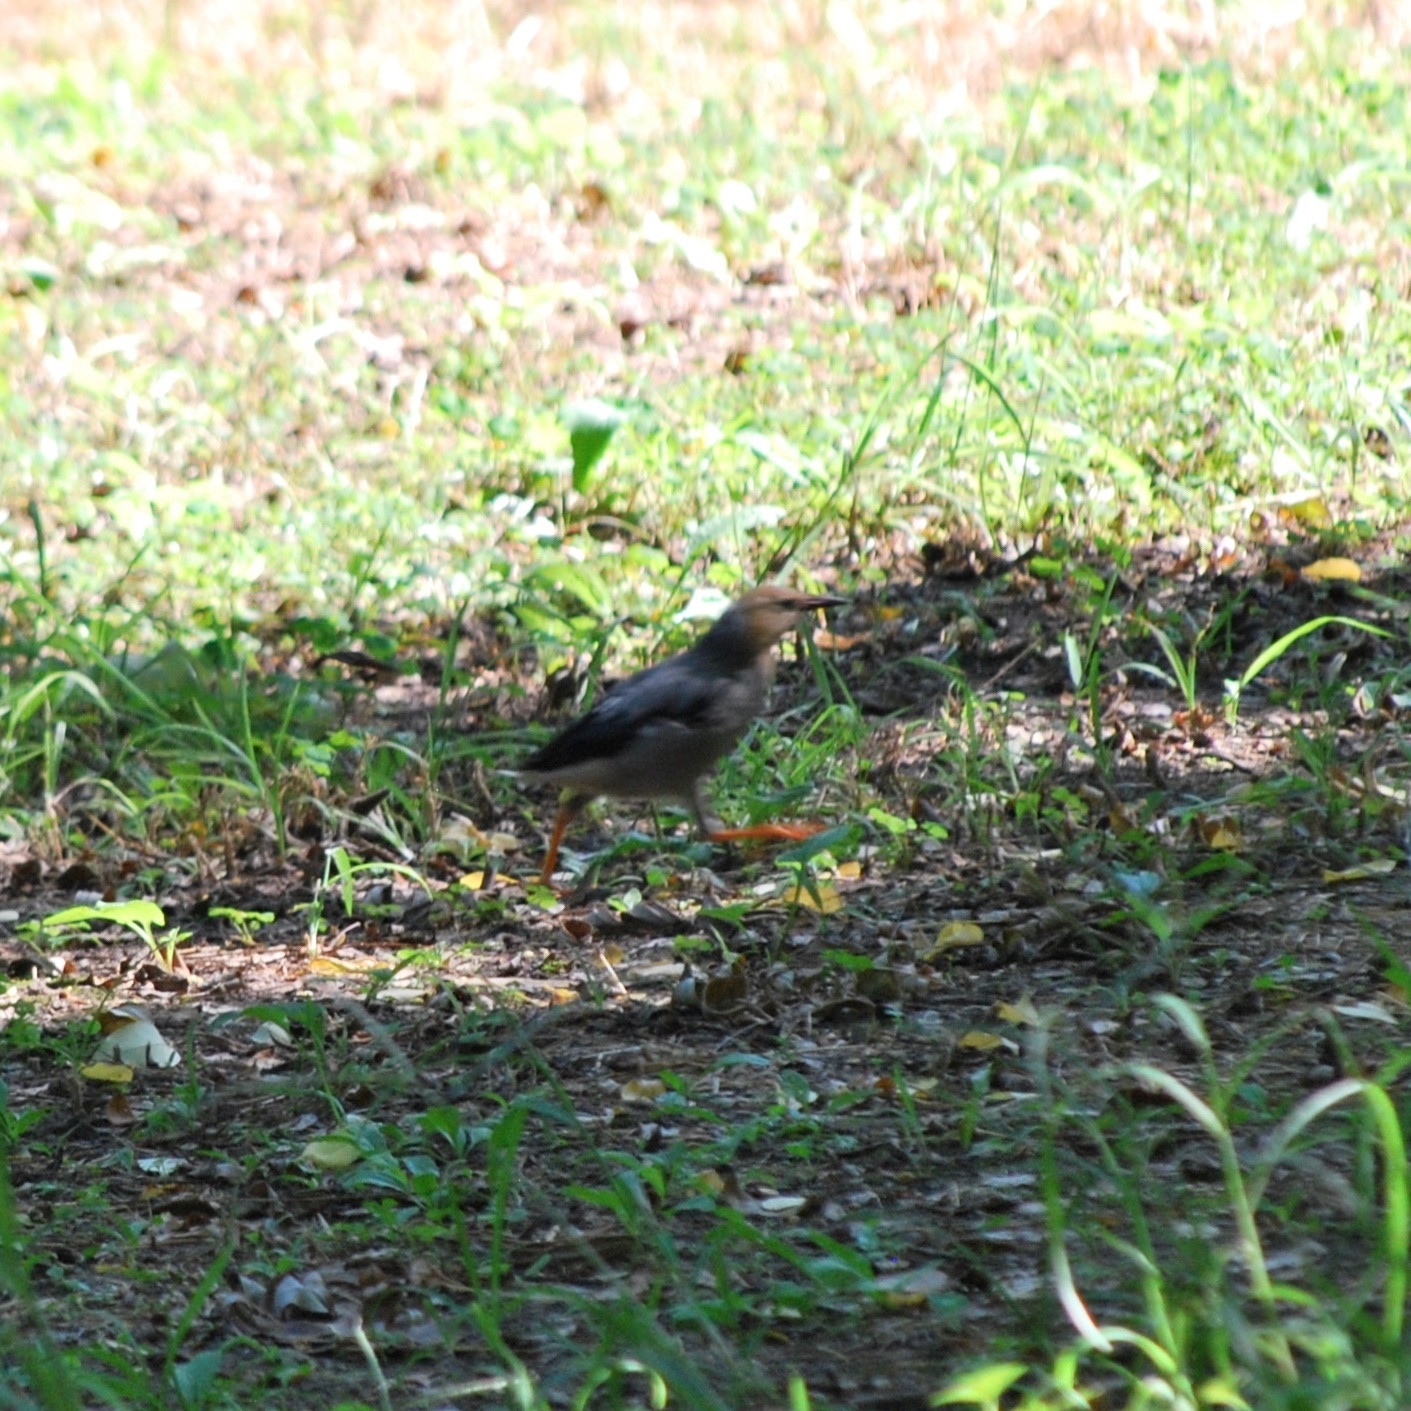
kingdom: Animalia
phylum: Chordata
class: Aves
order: Passeriformes
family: Sturnidae
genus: Spodiopsar
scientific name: Spodiopsar sericeus
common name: Red-billed starling
